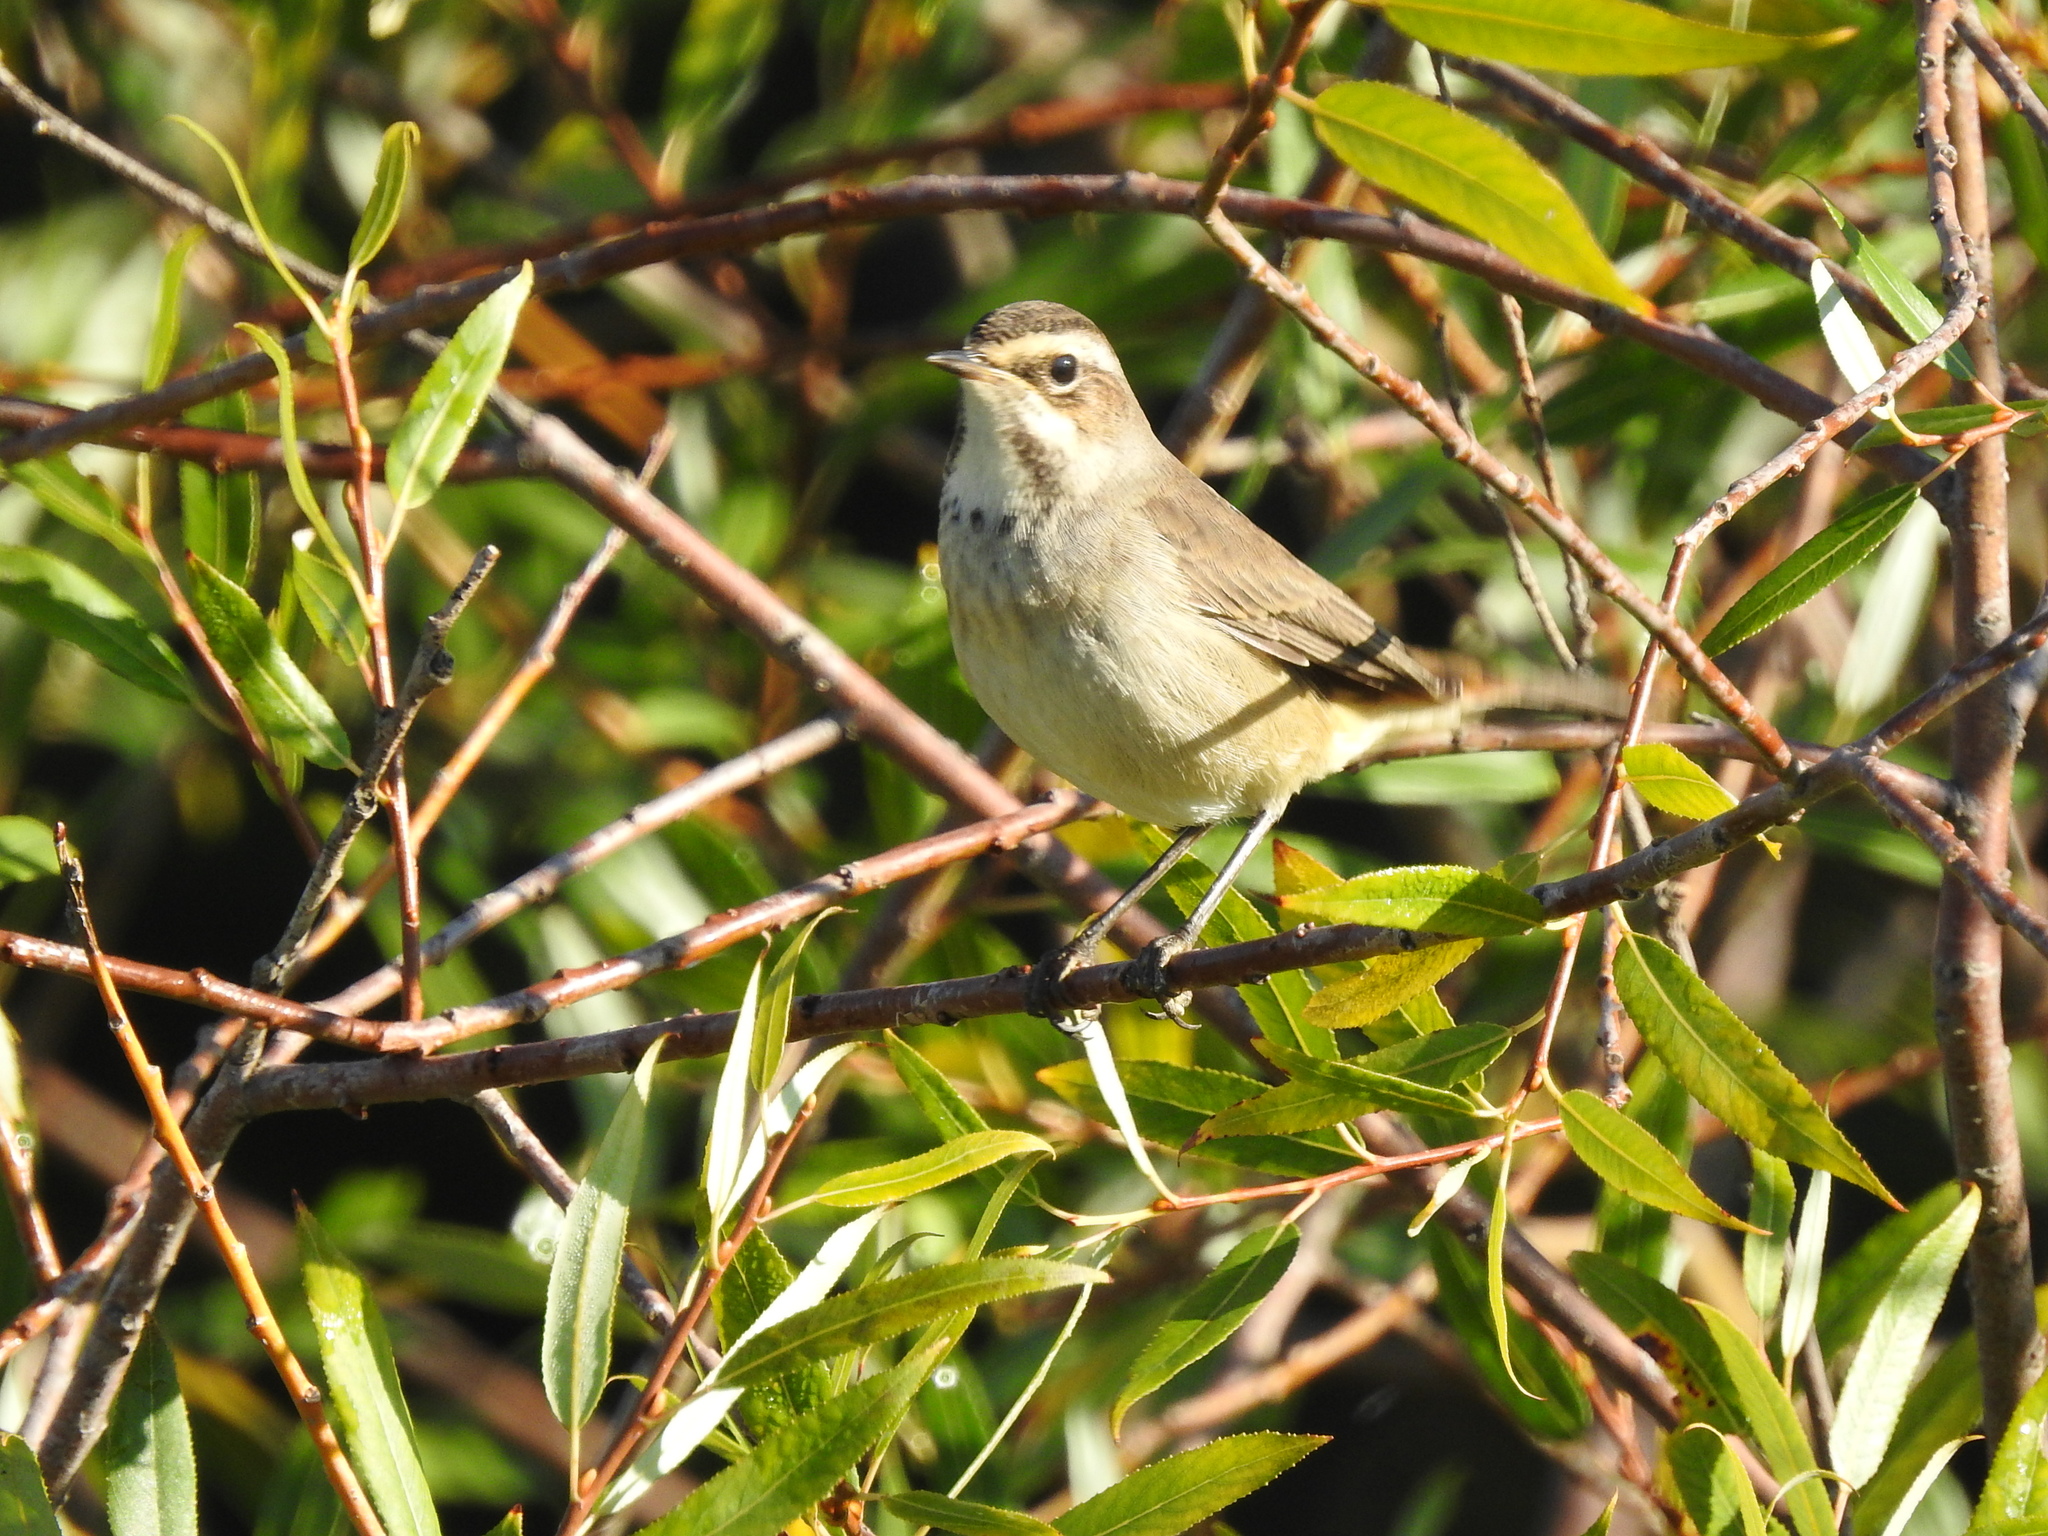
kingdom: Animalia
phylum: Chordata
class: Aves
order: Passeriformes
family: Muscicapidae
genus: Luscinia
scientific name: Luscinia svecica
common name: Bluethroat
